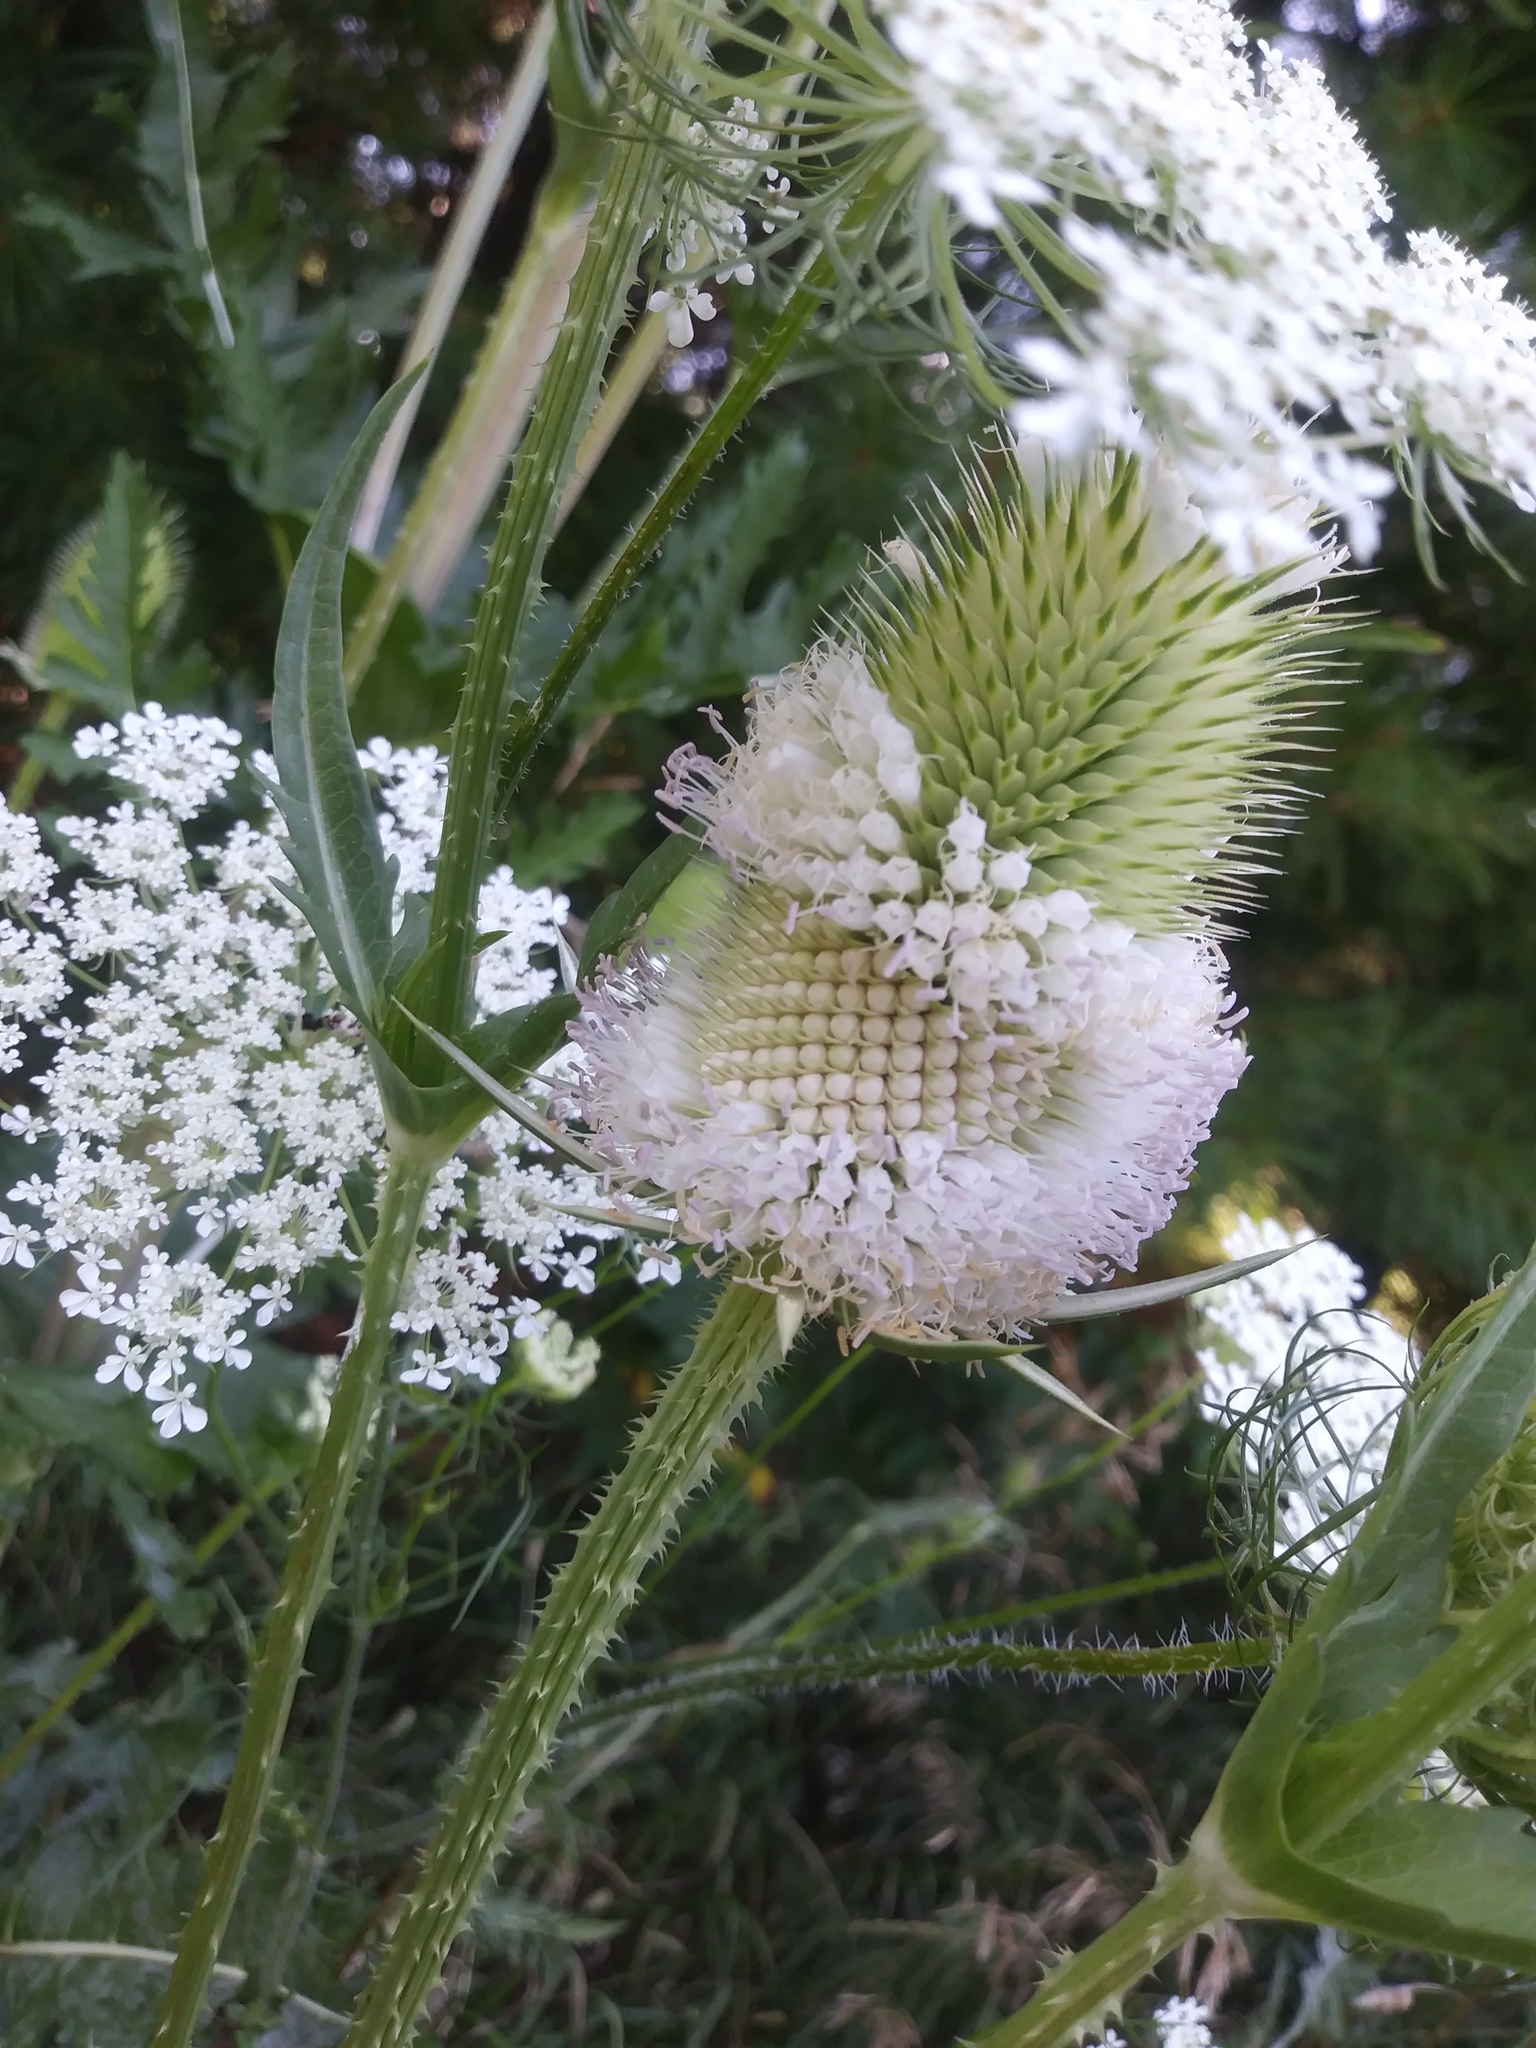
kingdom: Plantae
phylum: Tracheophyta
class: Magnoliopsida
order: Dipsacales
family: Caprifoliaceae
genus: Dipsacus
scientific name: Dipsacus laciniatus
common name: Cut-leaved teasel
